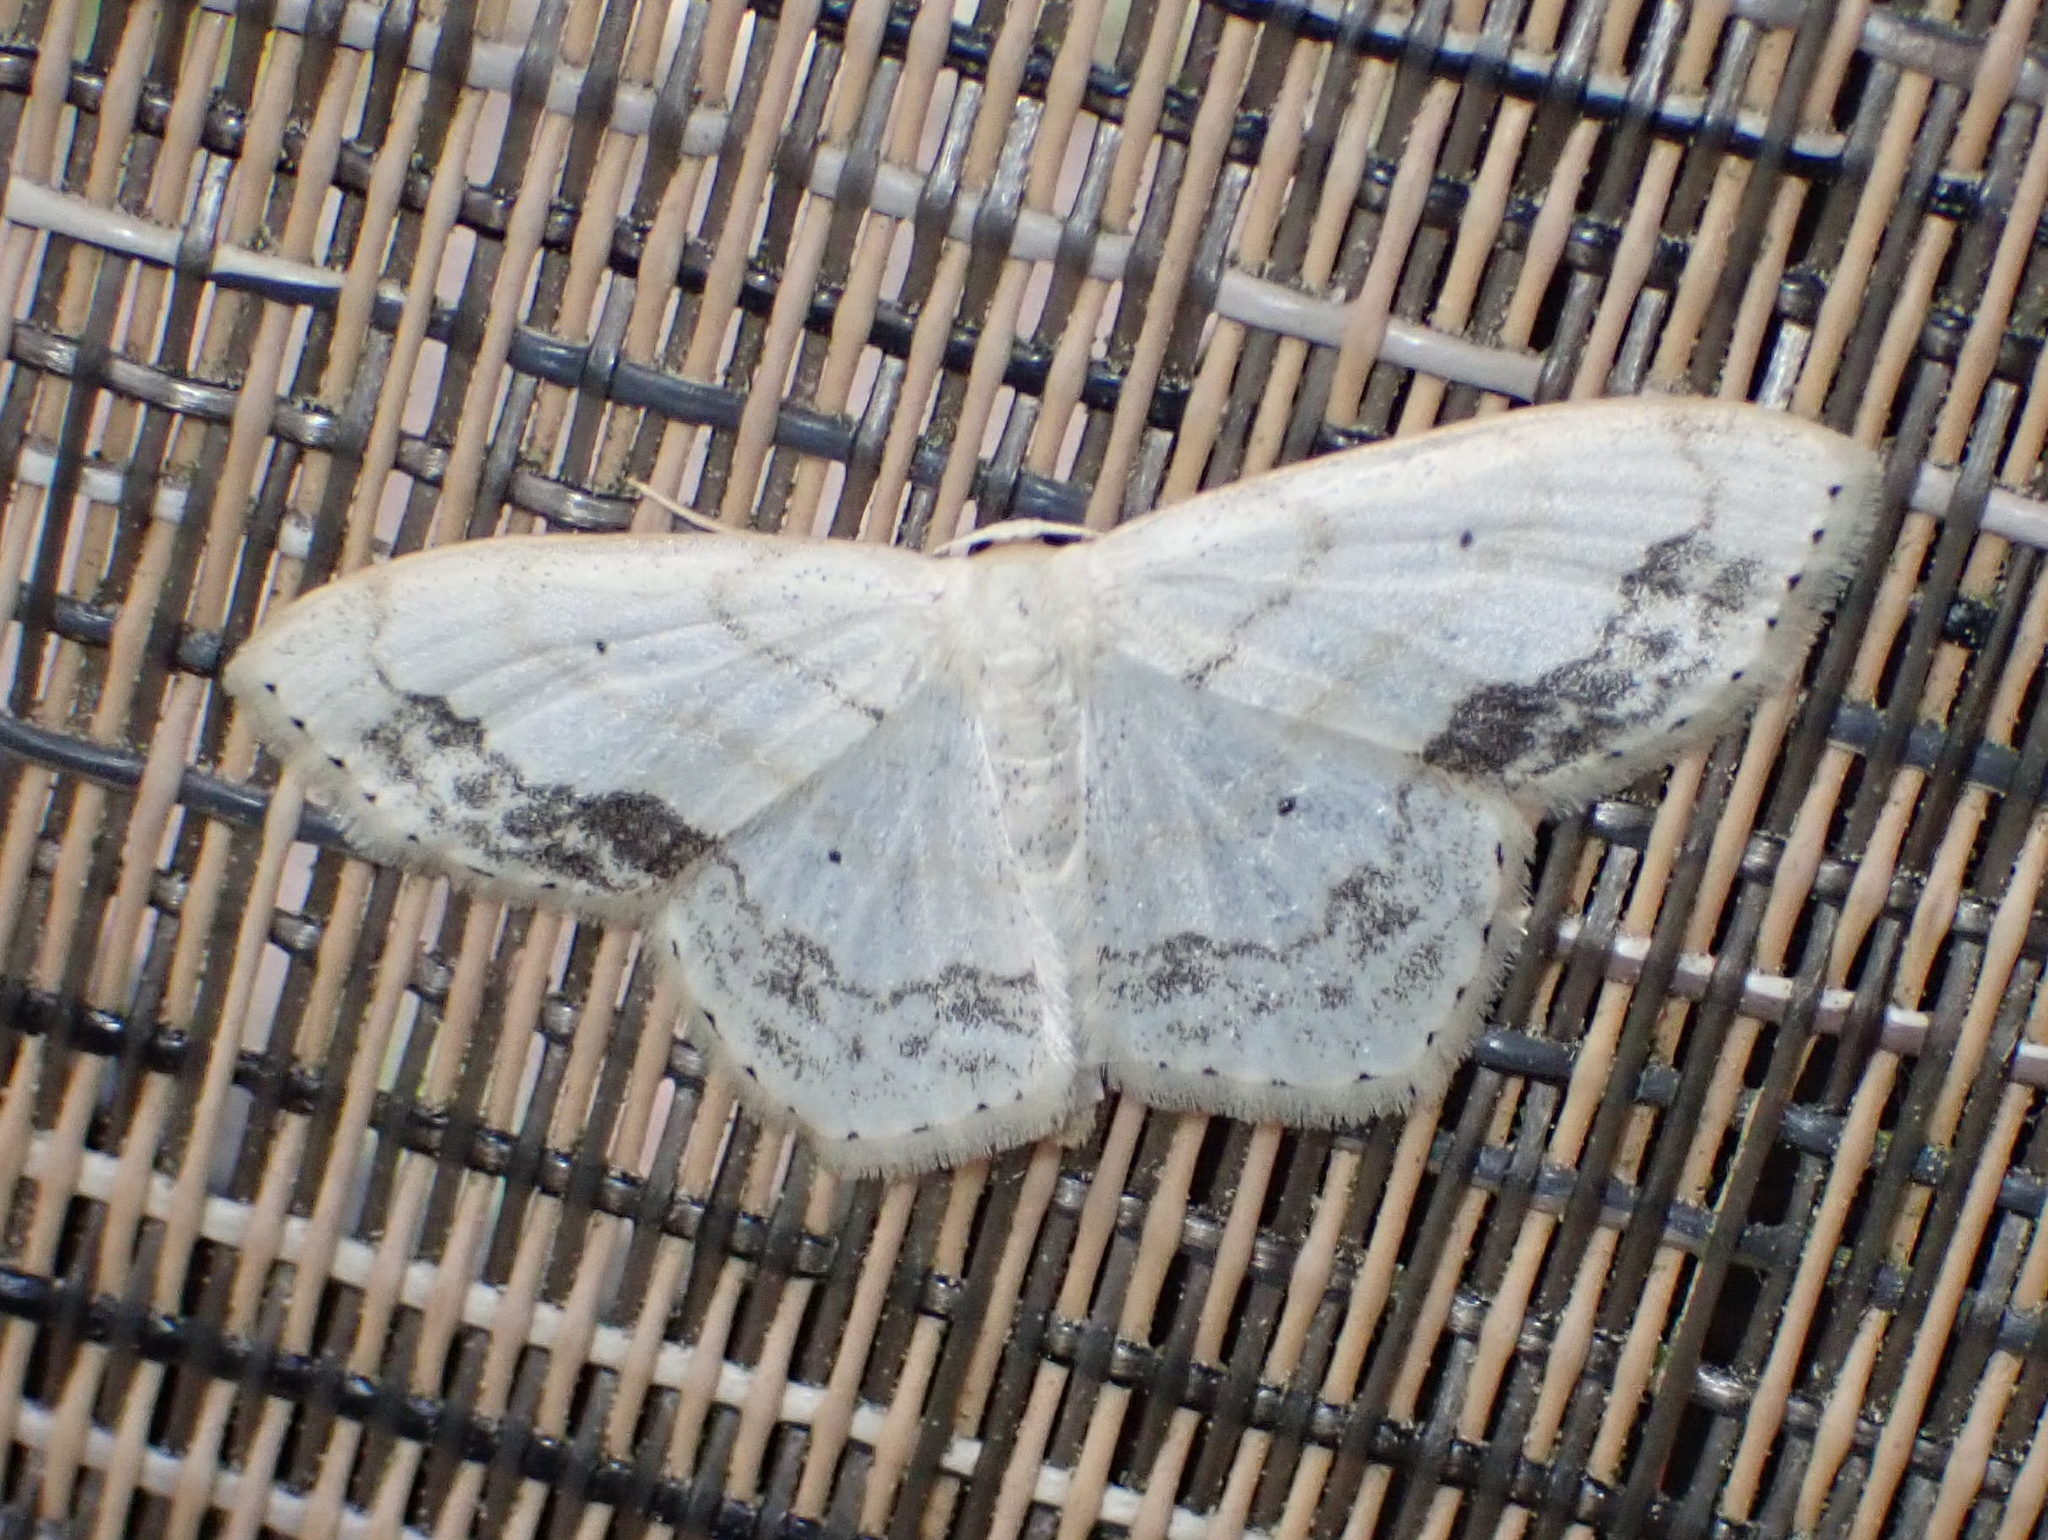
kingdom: Animalia
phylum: Arthropoda
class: Insecta
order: Lepidoptera
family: Geometridae
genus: Scopula
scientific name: Scopula limboundata
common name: Large lace border
